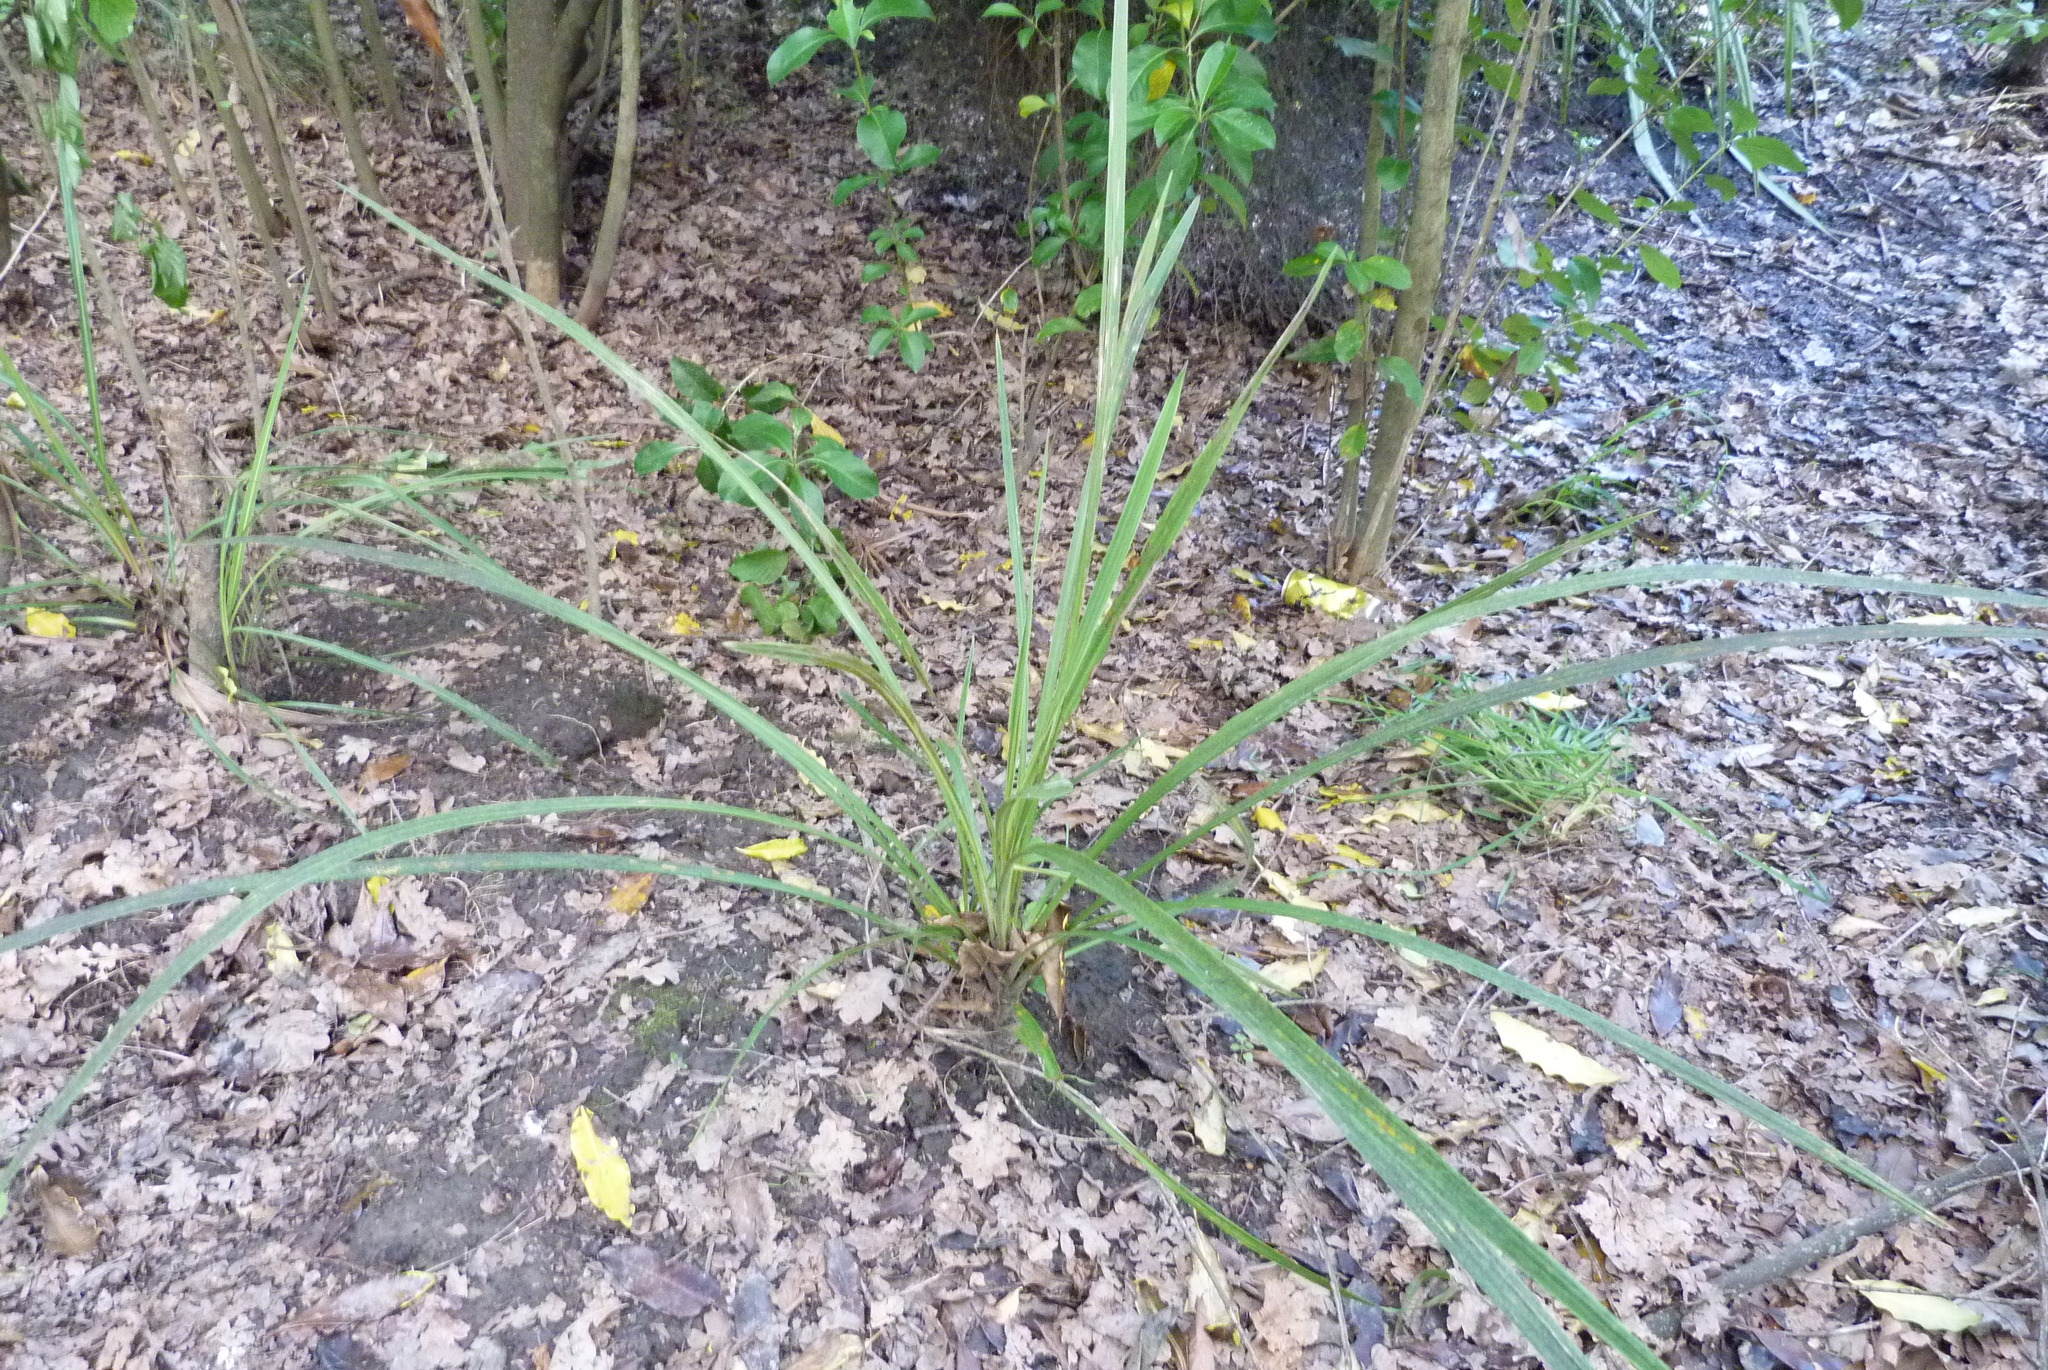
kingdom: Plantae
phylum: Tracheophyta
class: Liliopsida
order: Asparagales
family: Asparagaceae
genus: Cordyline
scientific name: Cordyline australis
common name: Cabbage-palm
